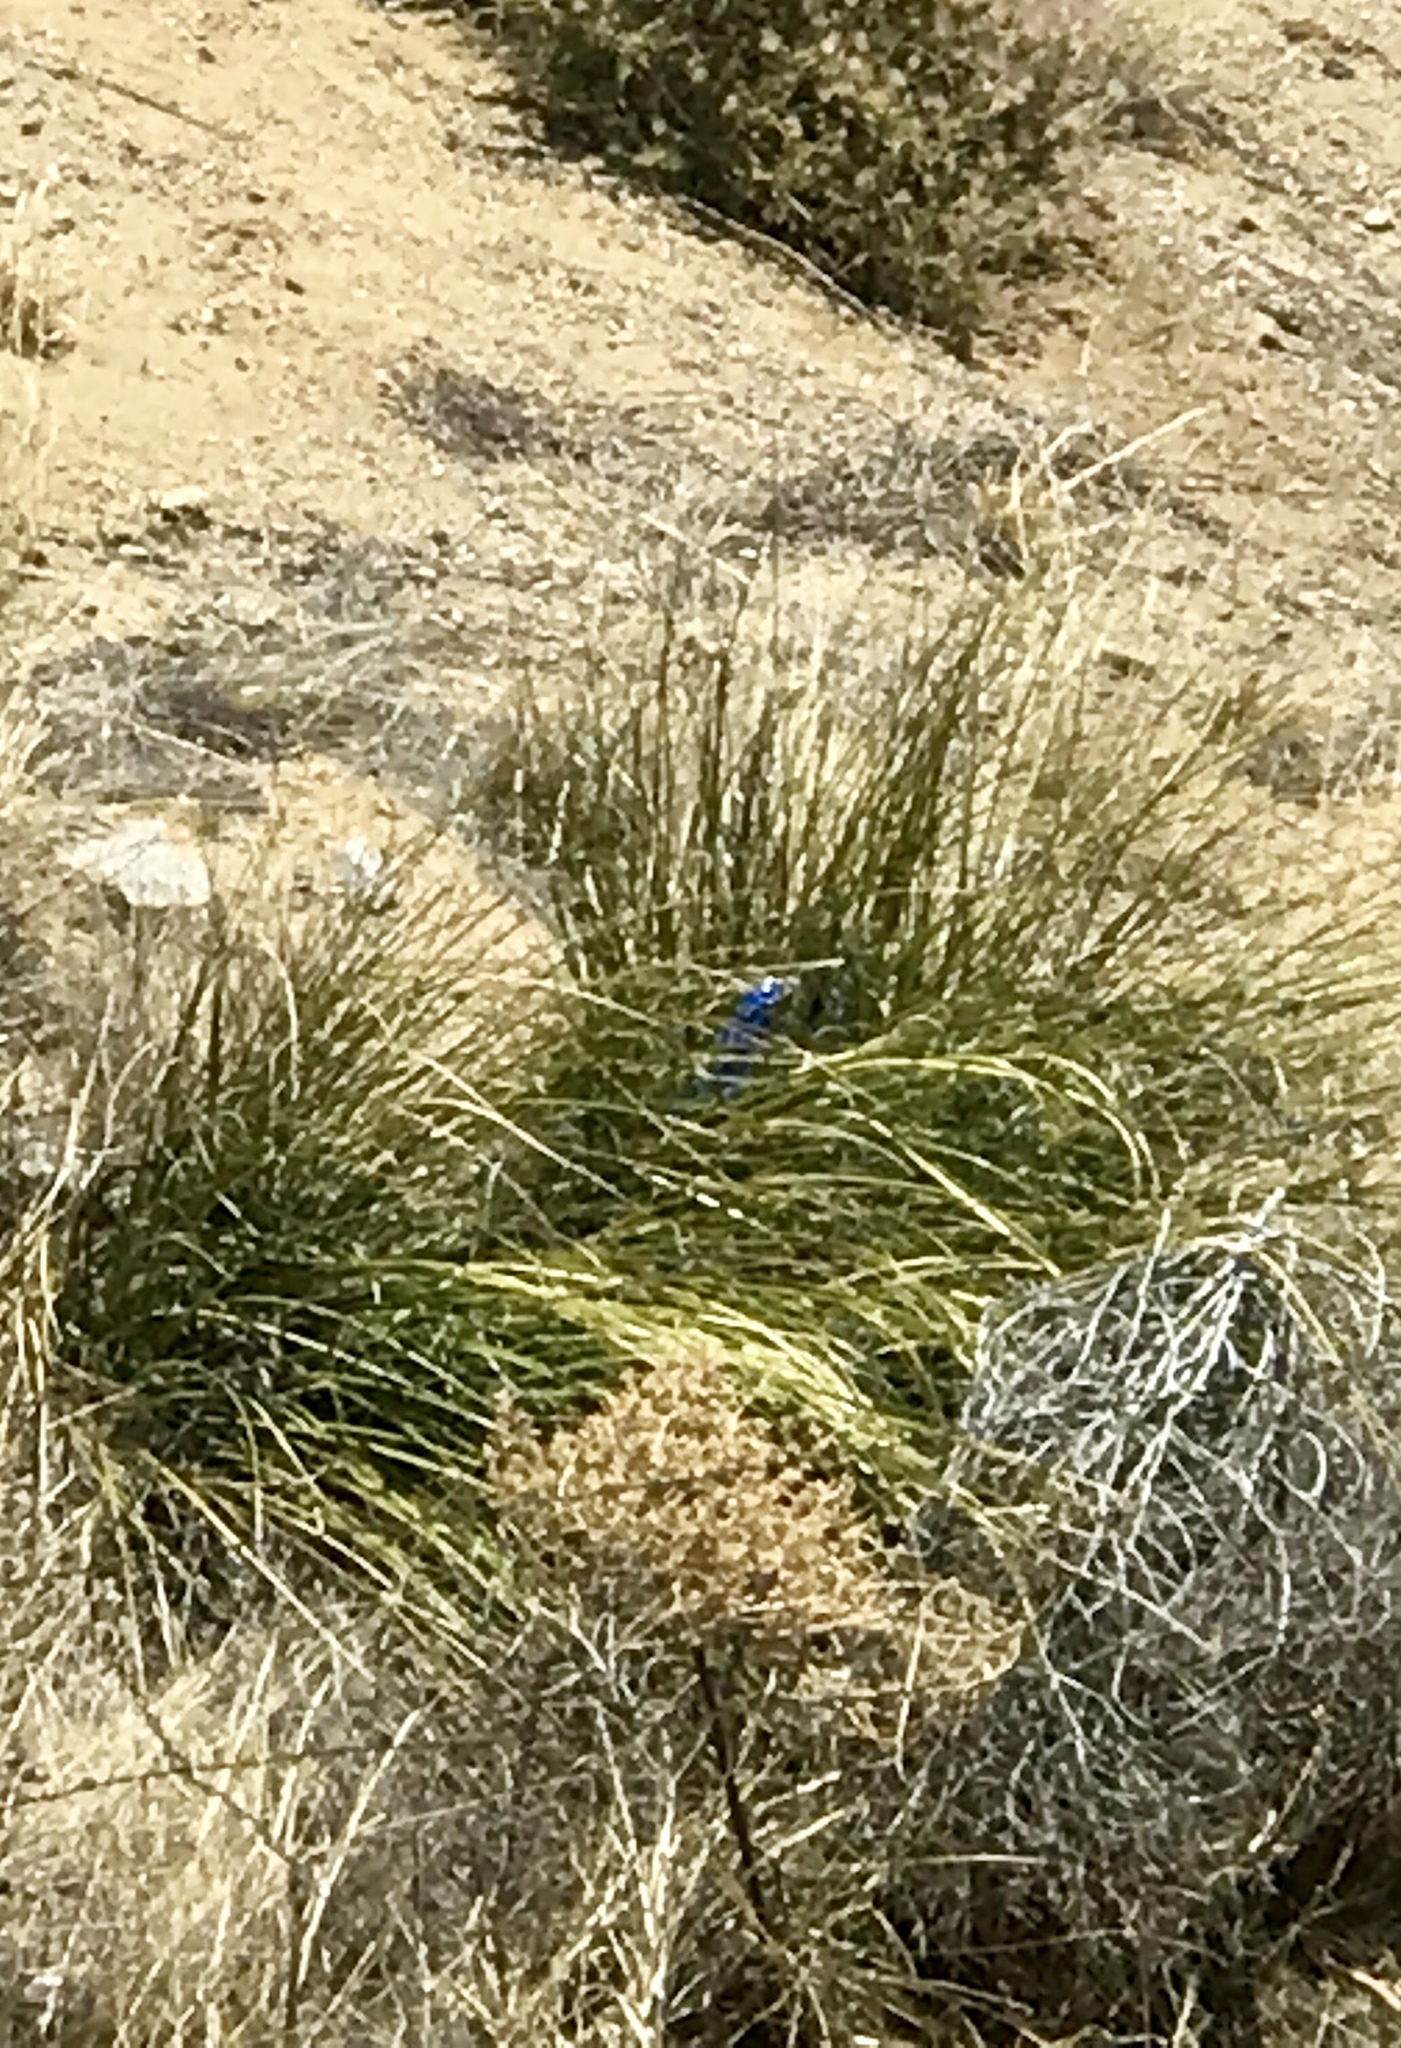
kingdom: Plantae
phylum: Tracheophyta
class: Liliopsida
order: Asparagales
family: Asparagaceae
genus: Nolina
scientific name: Nolina microcarpa
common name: Bear-grass
